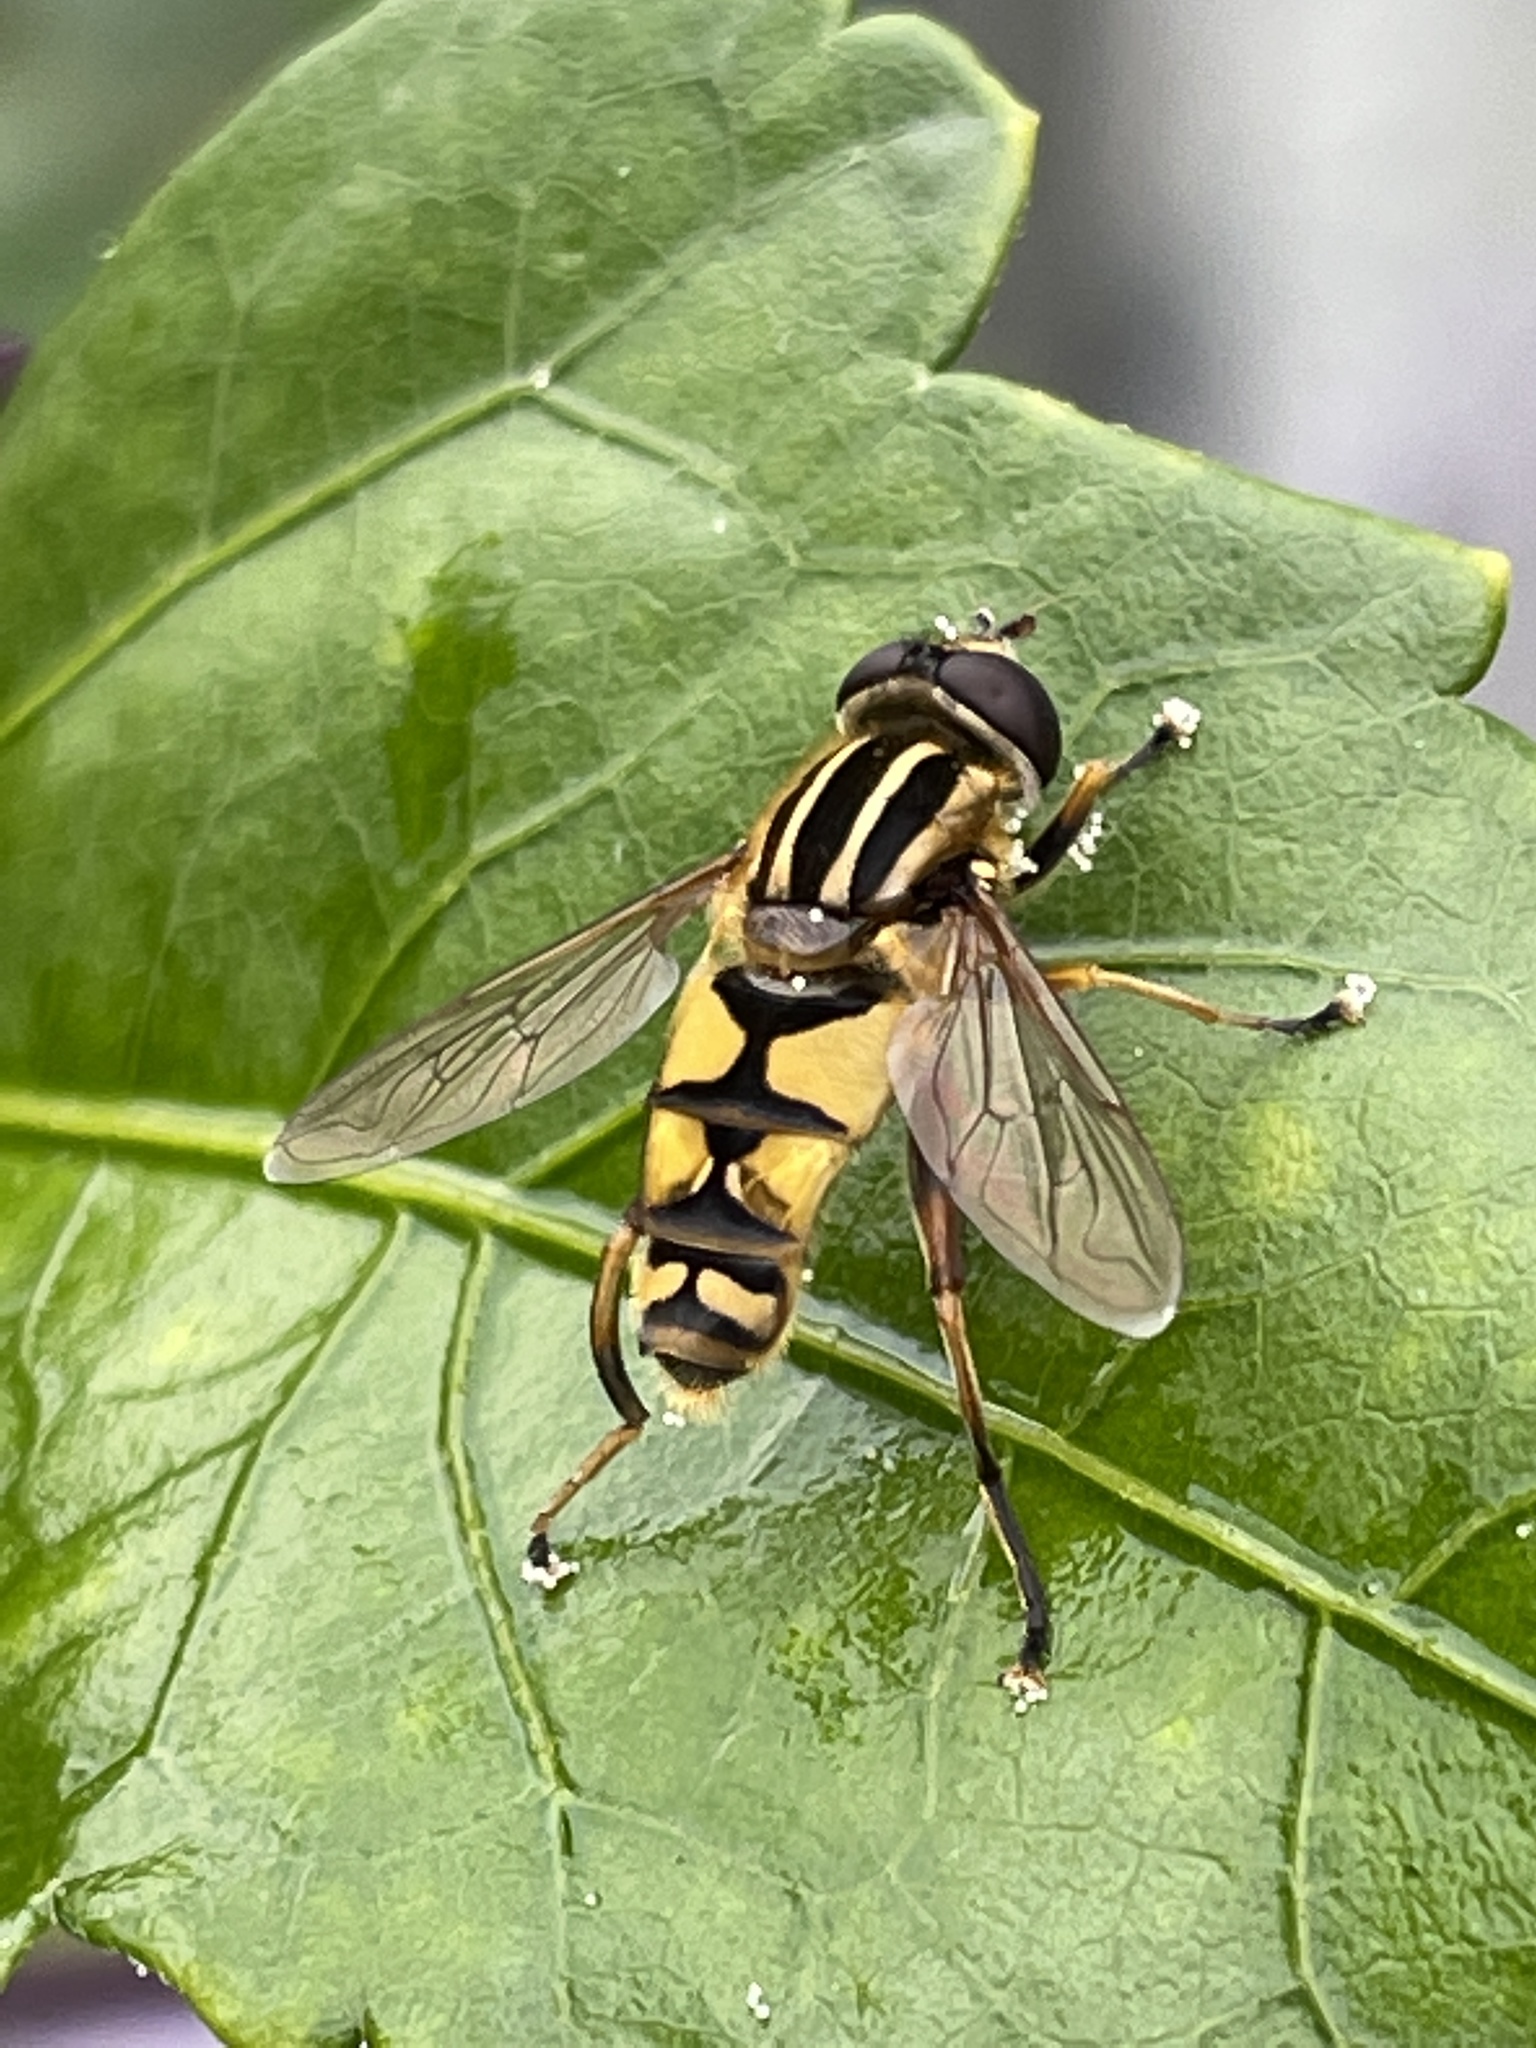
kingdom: Animalia
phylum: Arthropoda
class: Insecta
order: Diptera
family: Syrphidae
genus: Helophilus
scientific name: Helophilus pendulus
